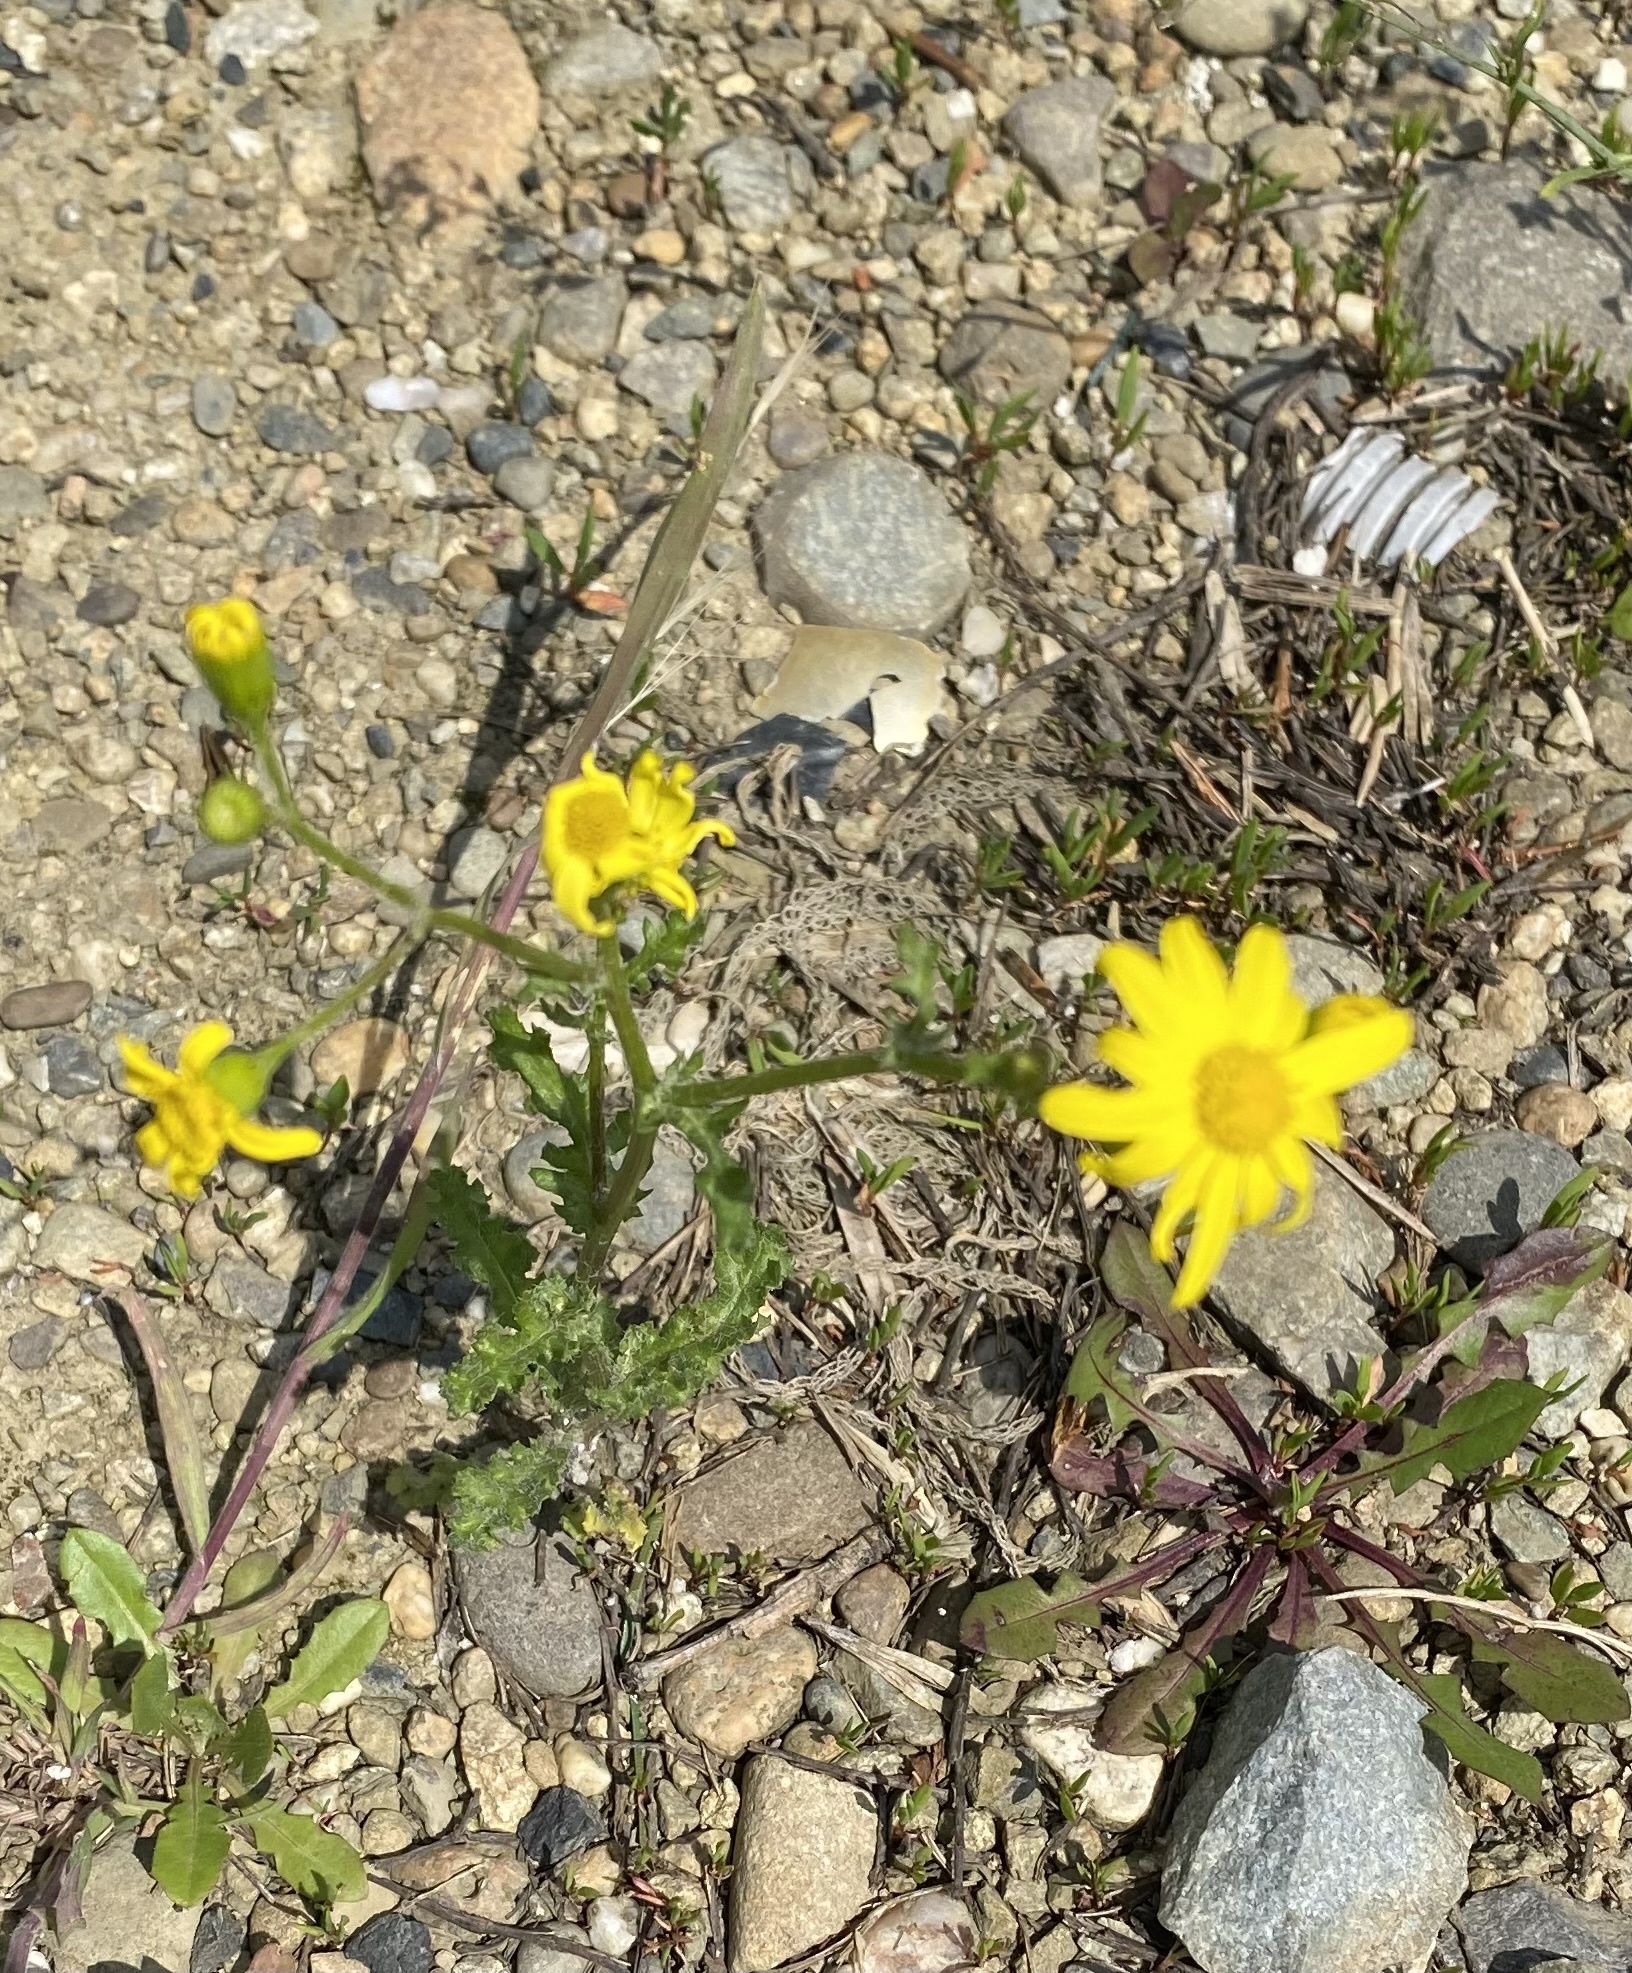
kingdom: Plantae
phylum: Tracheophyta
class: Magnoliopsida
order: Asterales
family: Asteraceae
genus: Senecio
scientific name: Senecio vernalis
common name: Eastern groundsel
